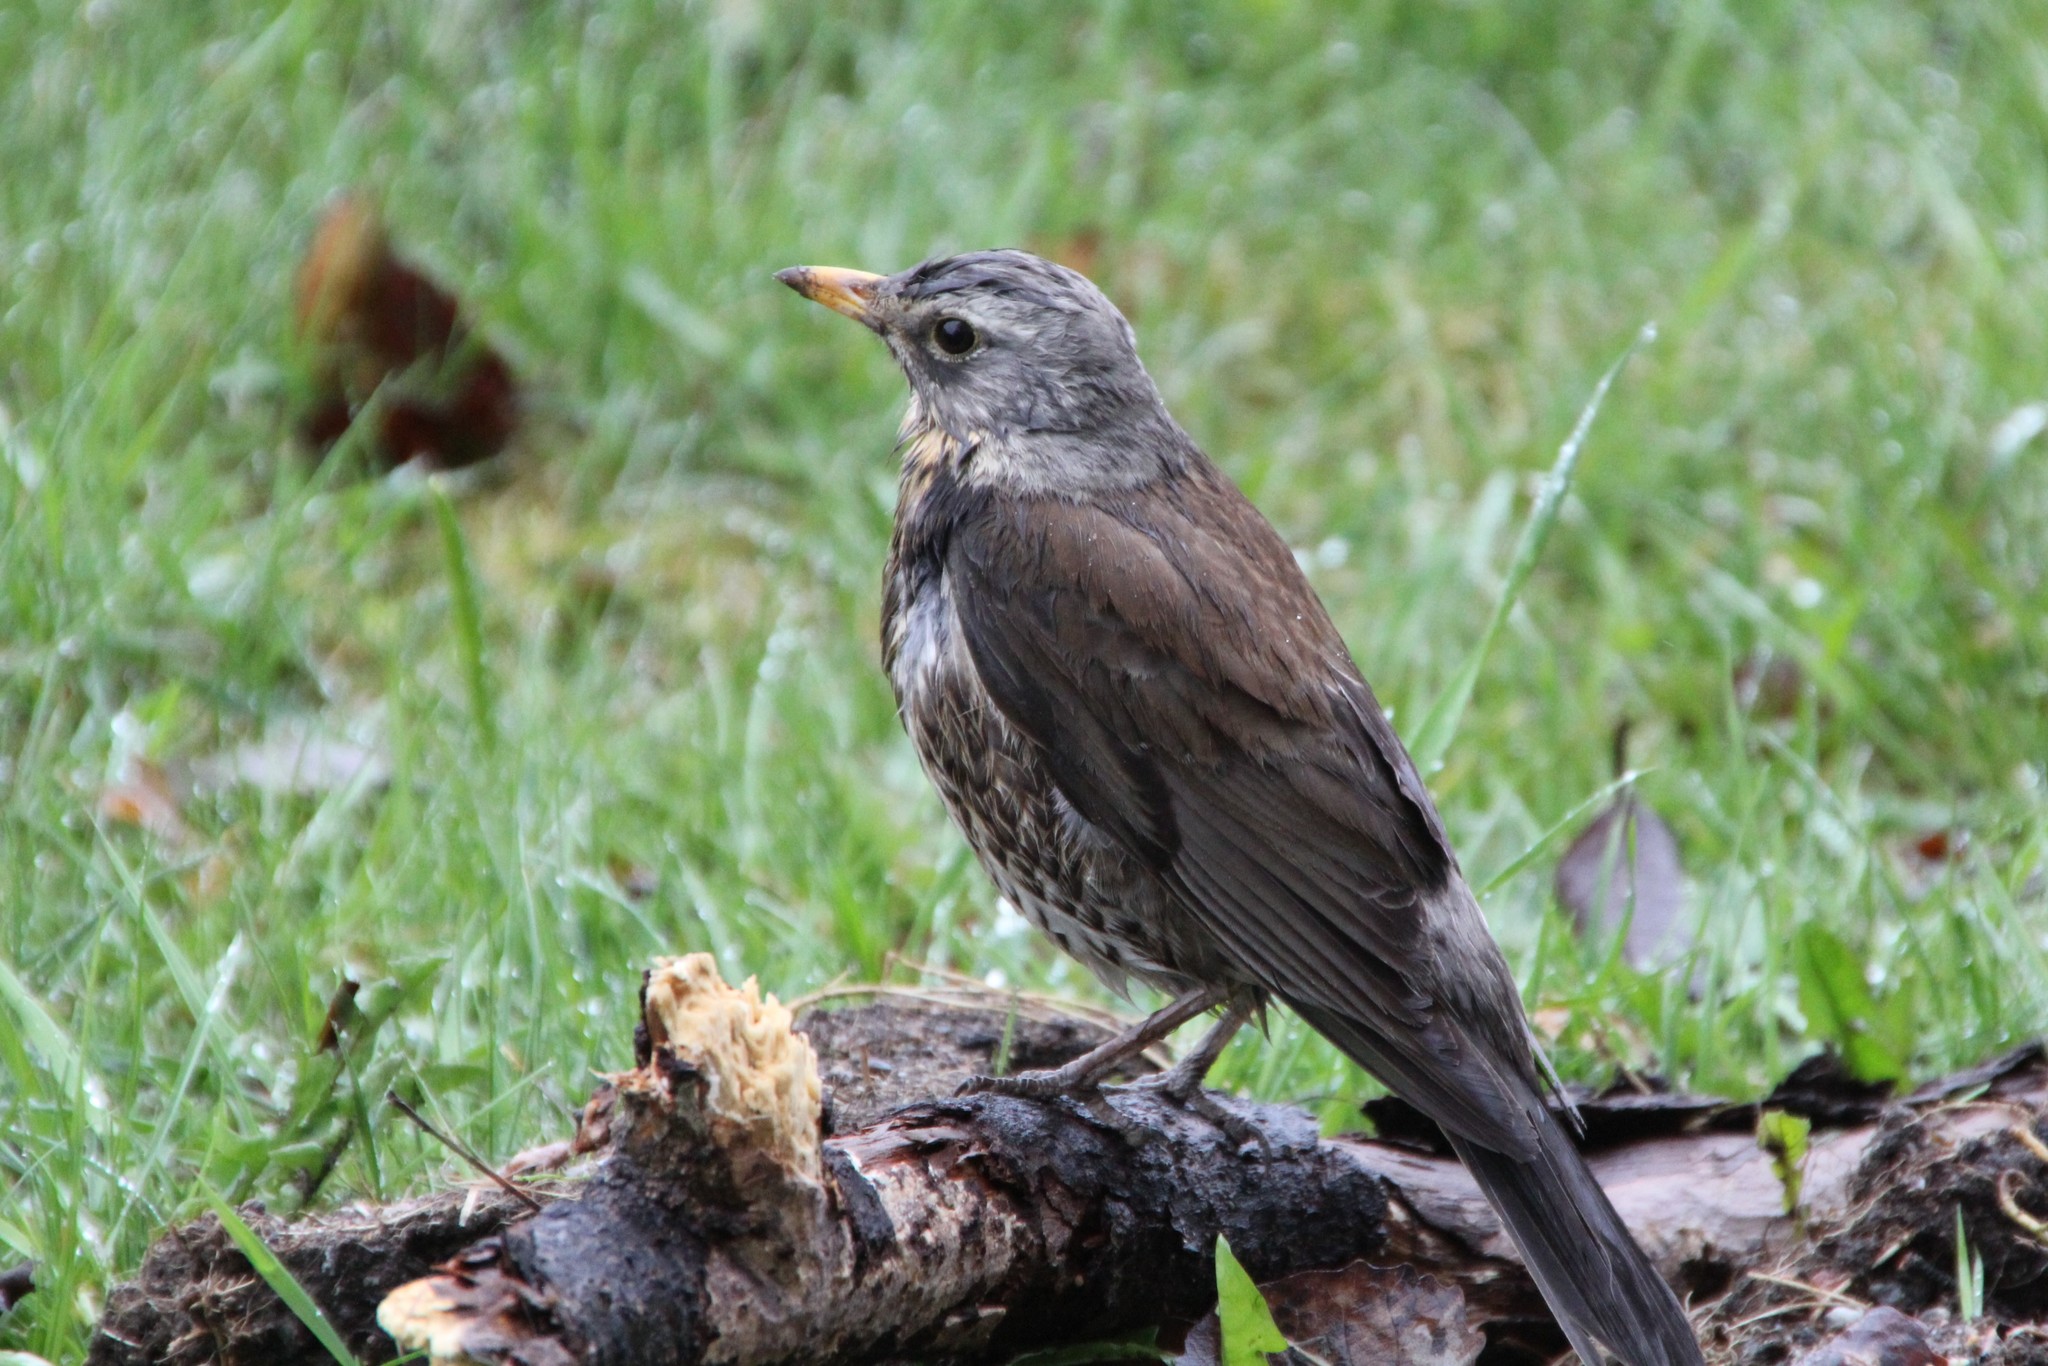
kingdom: Animalia
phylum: Chordata
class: Aves
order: Passeriformes
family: Turdidae
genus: Turdus
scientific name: Turdus pilaris
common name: Fieldfare
